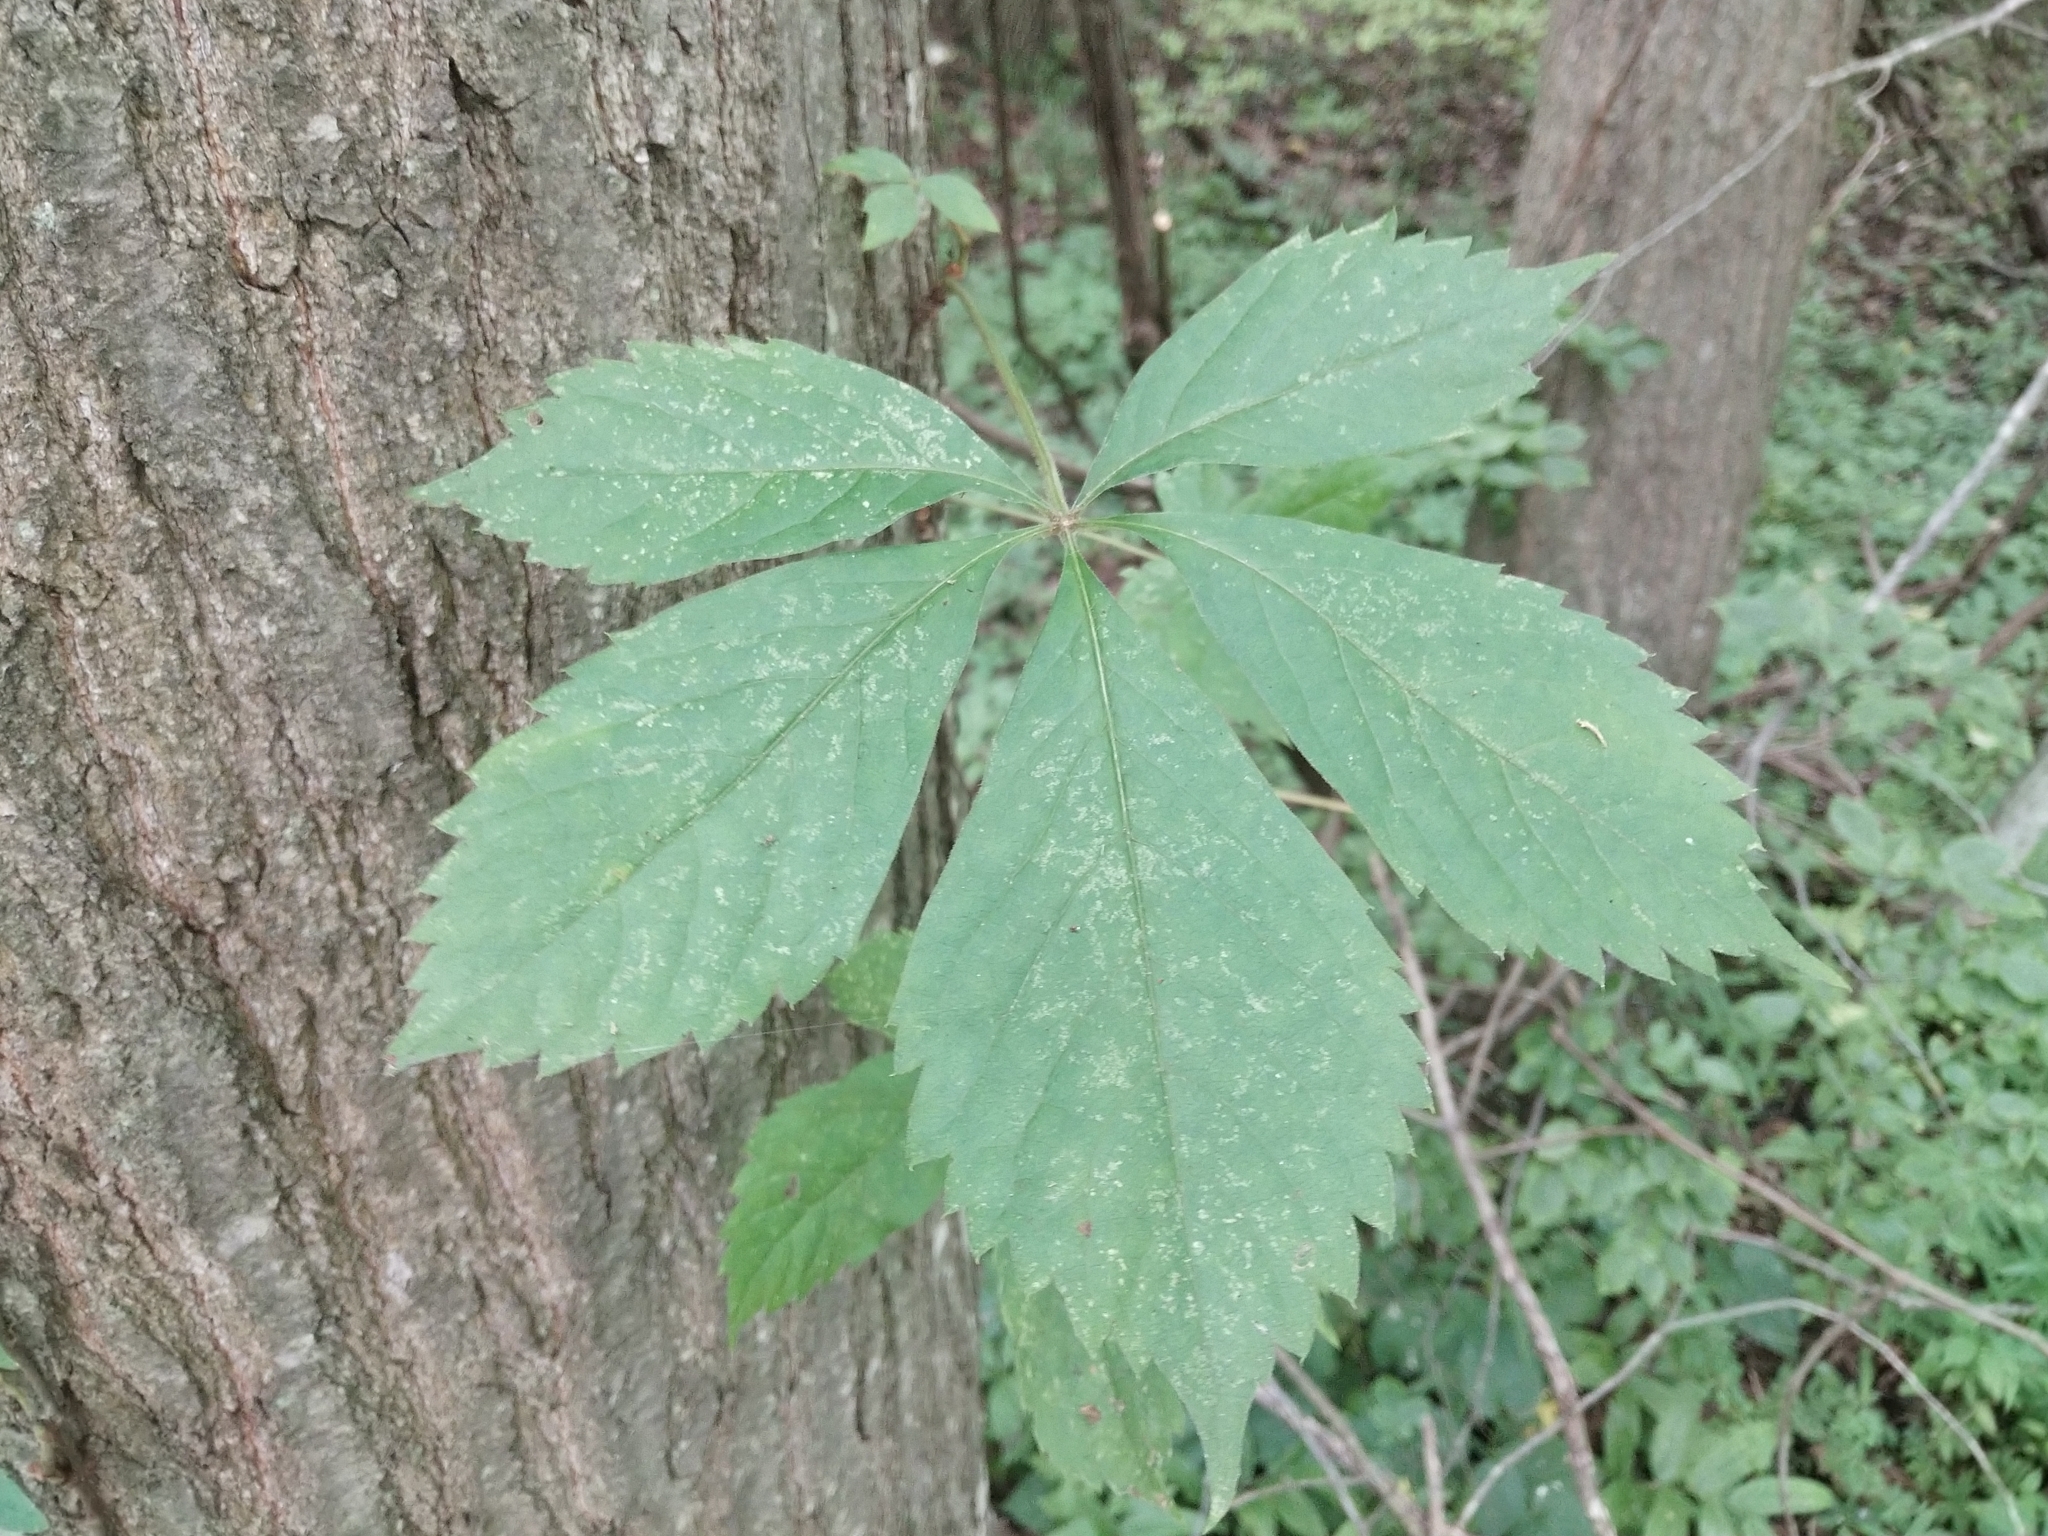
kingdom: Plantae
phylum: Tracheophyta
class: Magnoliopsida
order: Vitales
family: Vitaceae
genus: Parthenocissus
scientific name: Parthenocissus quinquefolia
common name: Virginia-creeper
